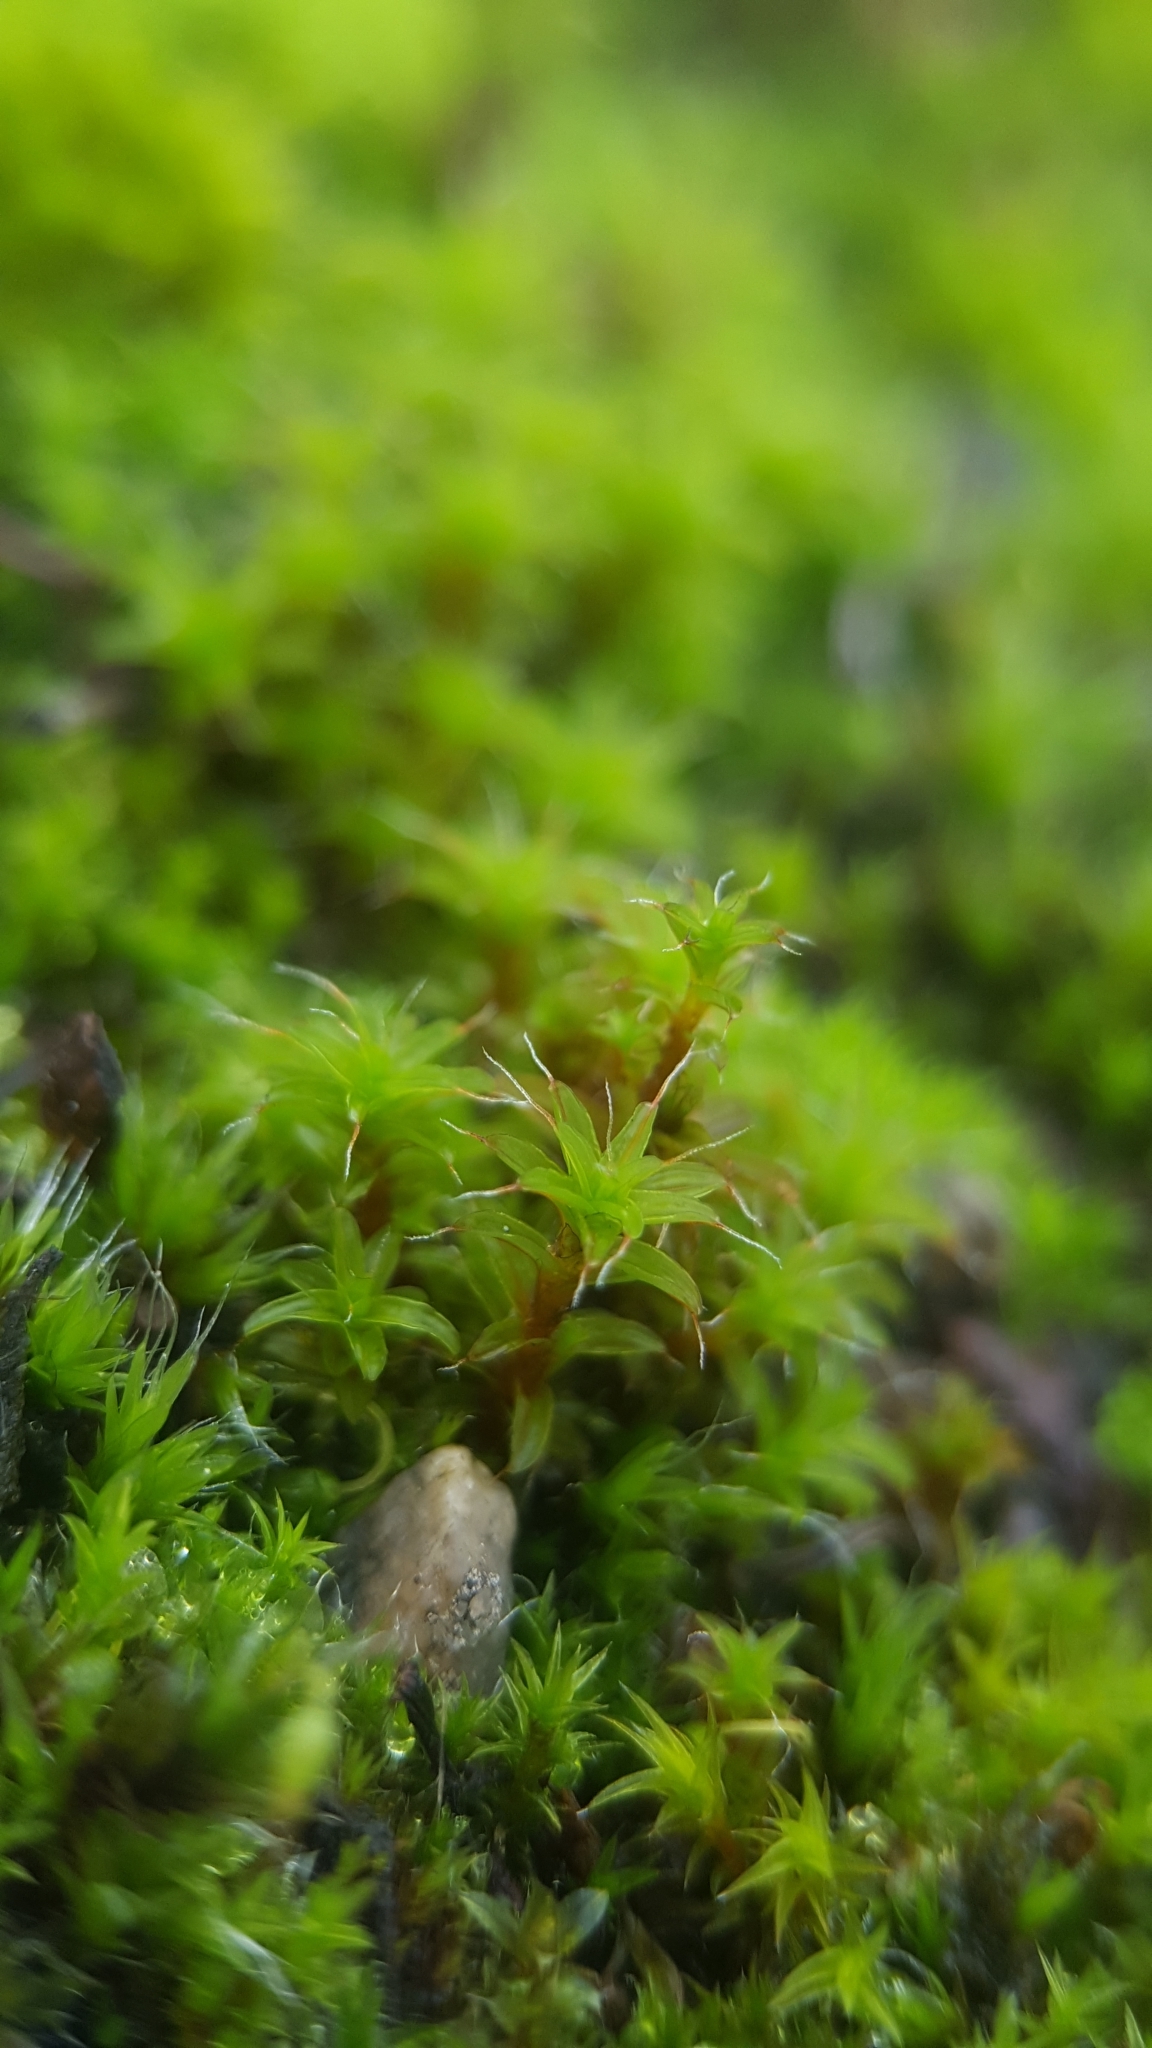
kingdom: Plantae
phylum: Bryophyta
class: Bryopsida
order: Pottiales
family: Pottiaceae
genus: Syntrichia
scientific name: Syntrichia ruralis
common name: Sidewalk screw moss
